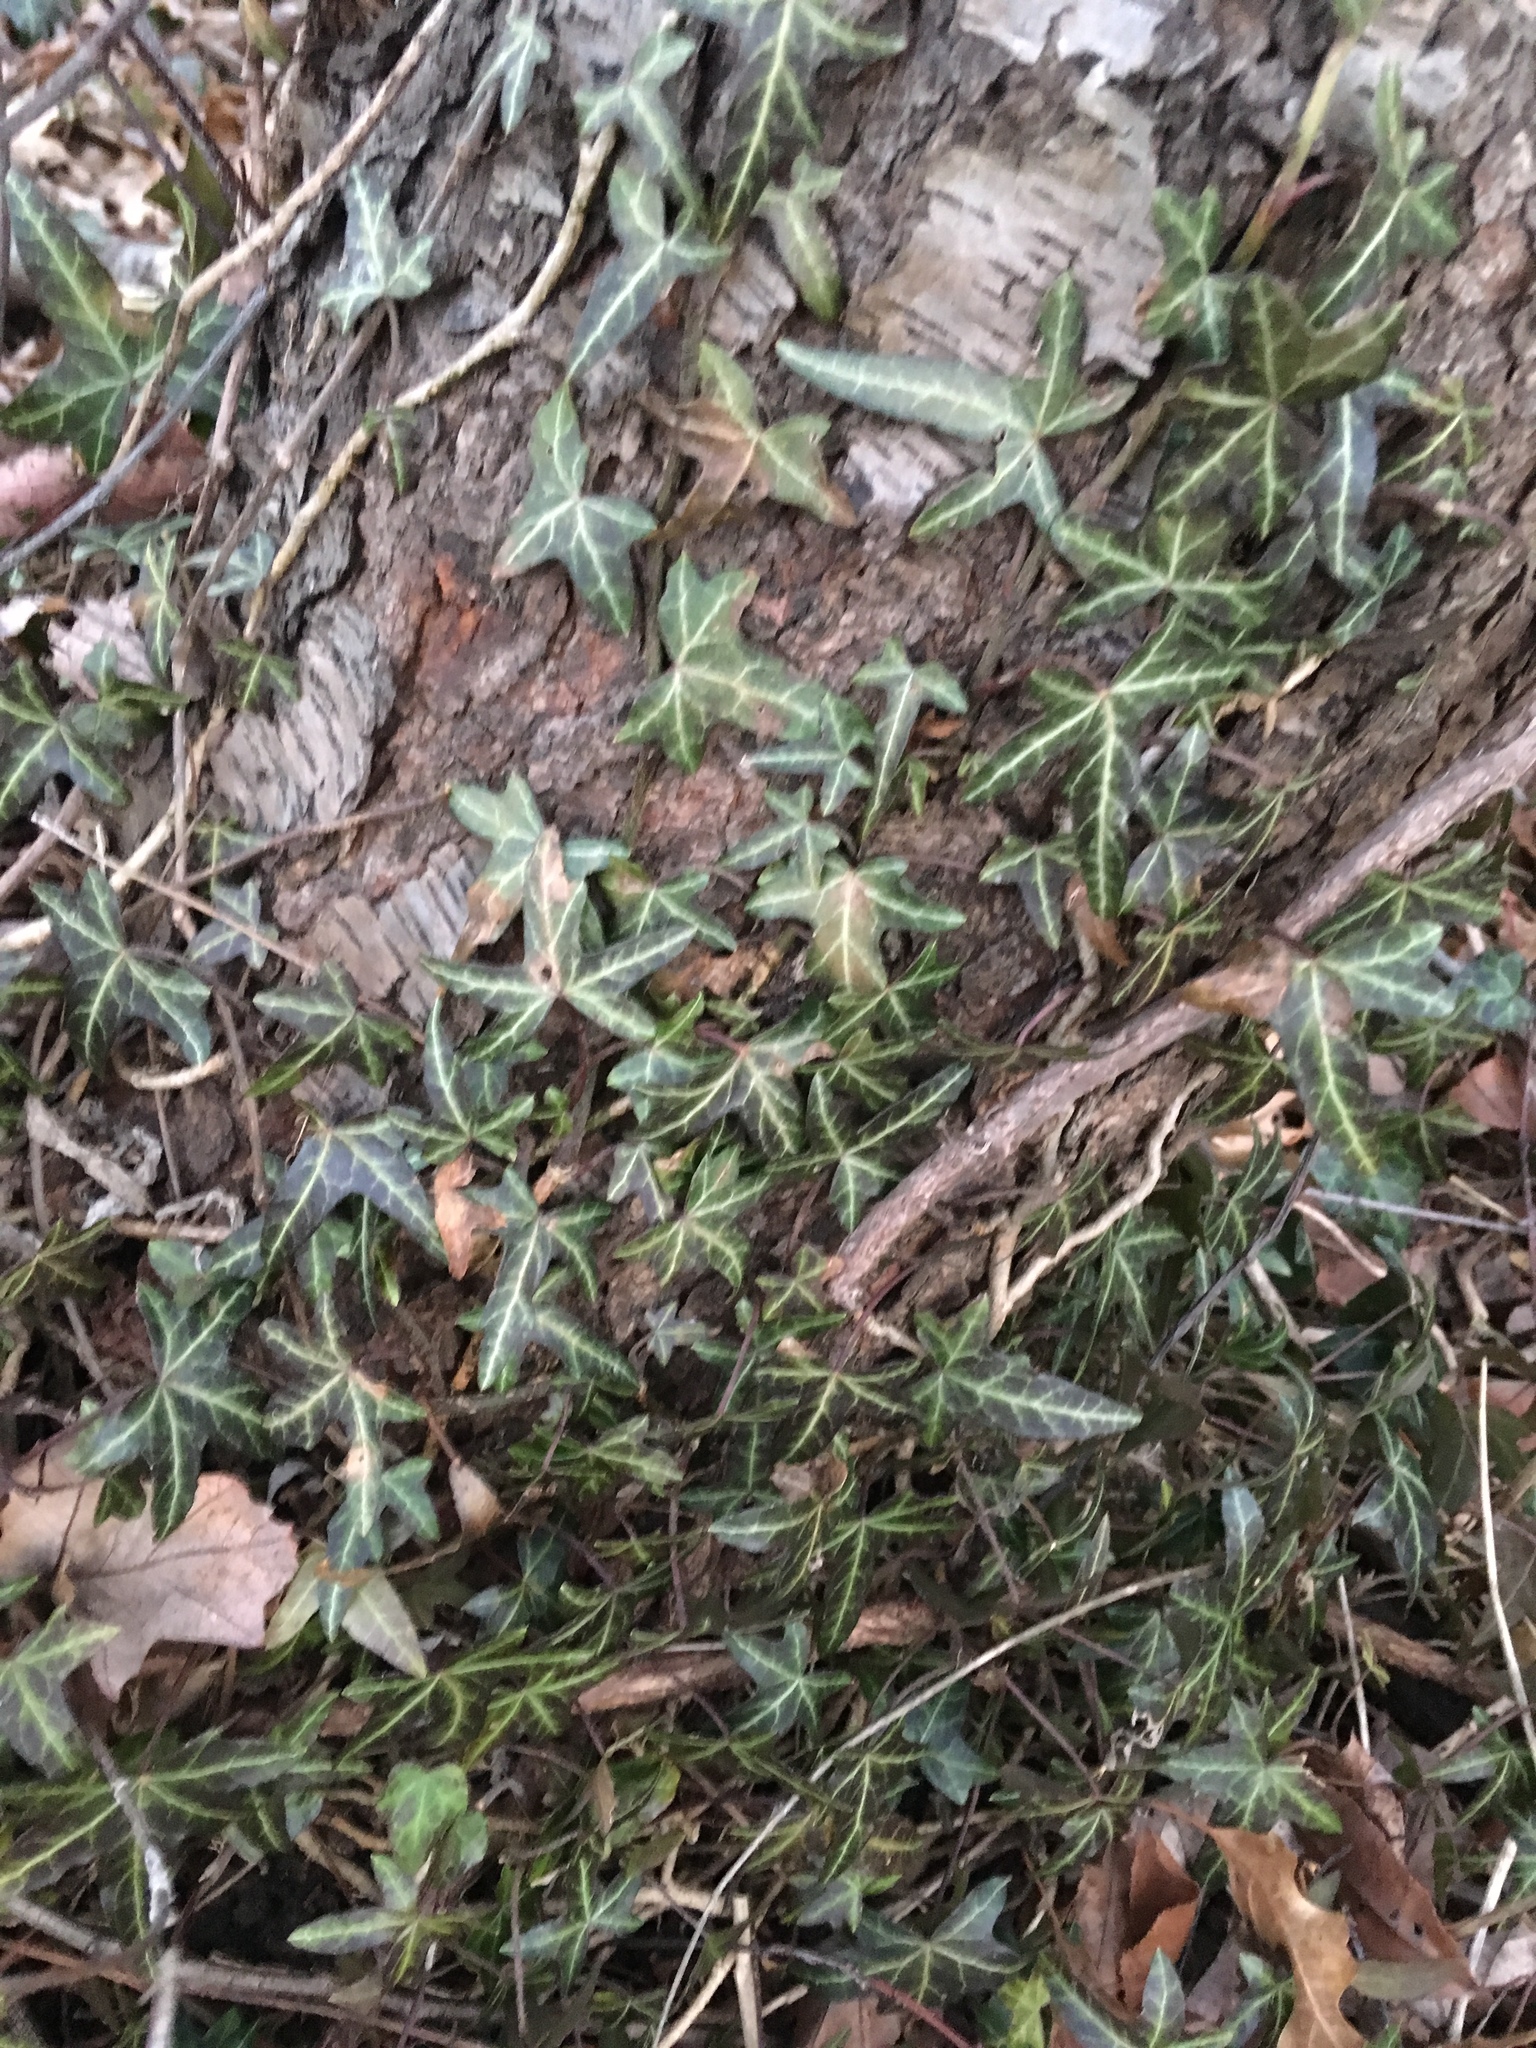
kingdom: Plantae
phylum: Tracheophyta
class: Magnoliopsida
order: Apiales
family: Araliaceae
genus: Hedera
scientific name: Hedera
